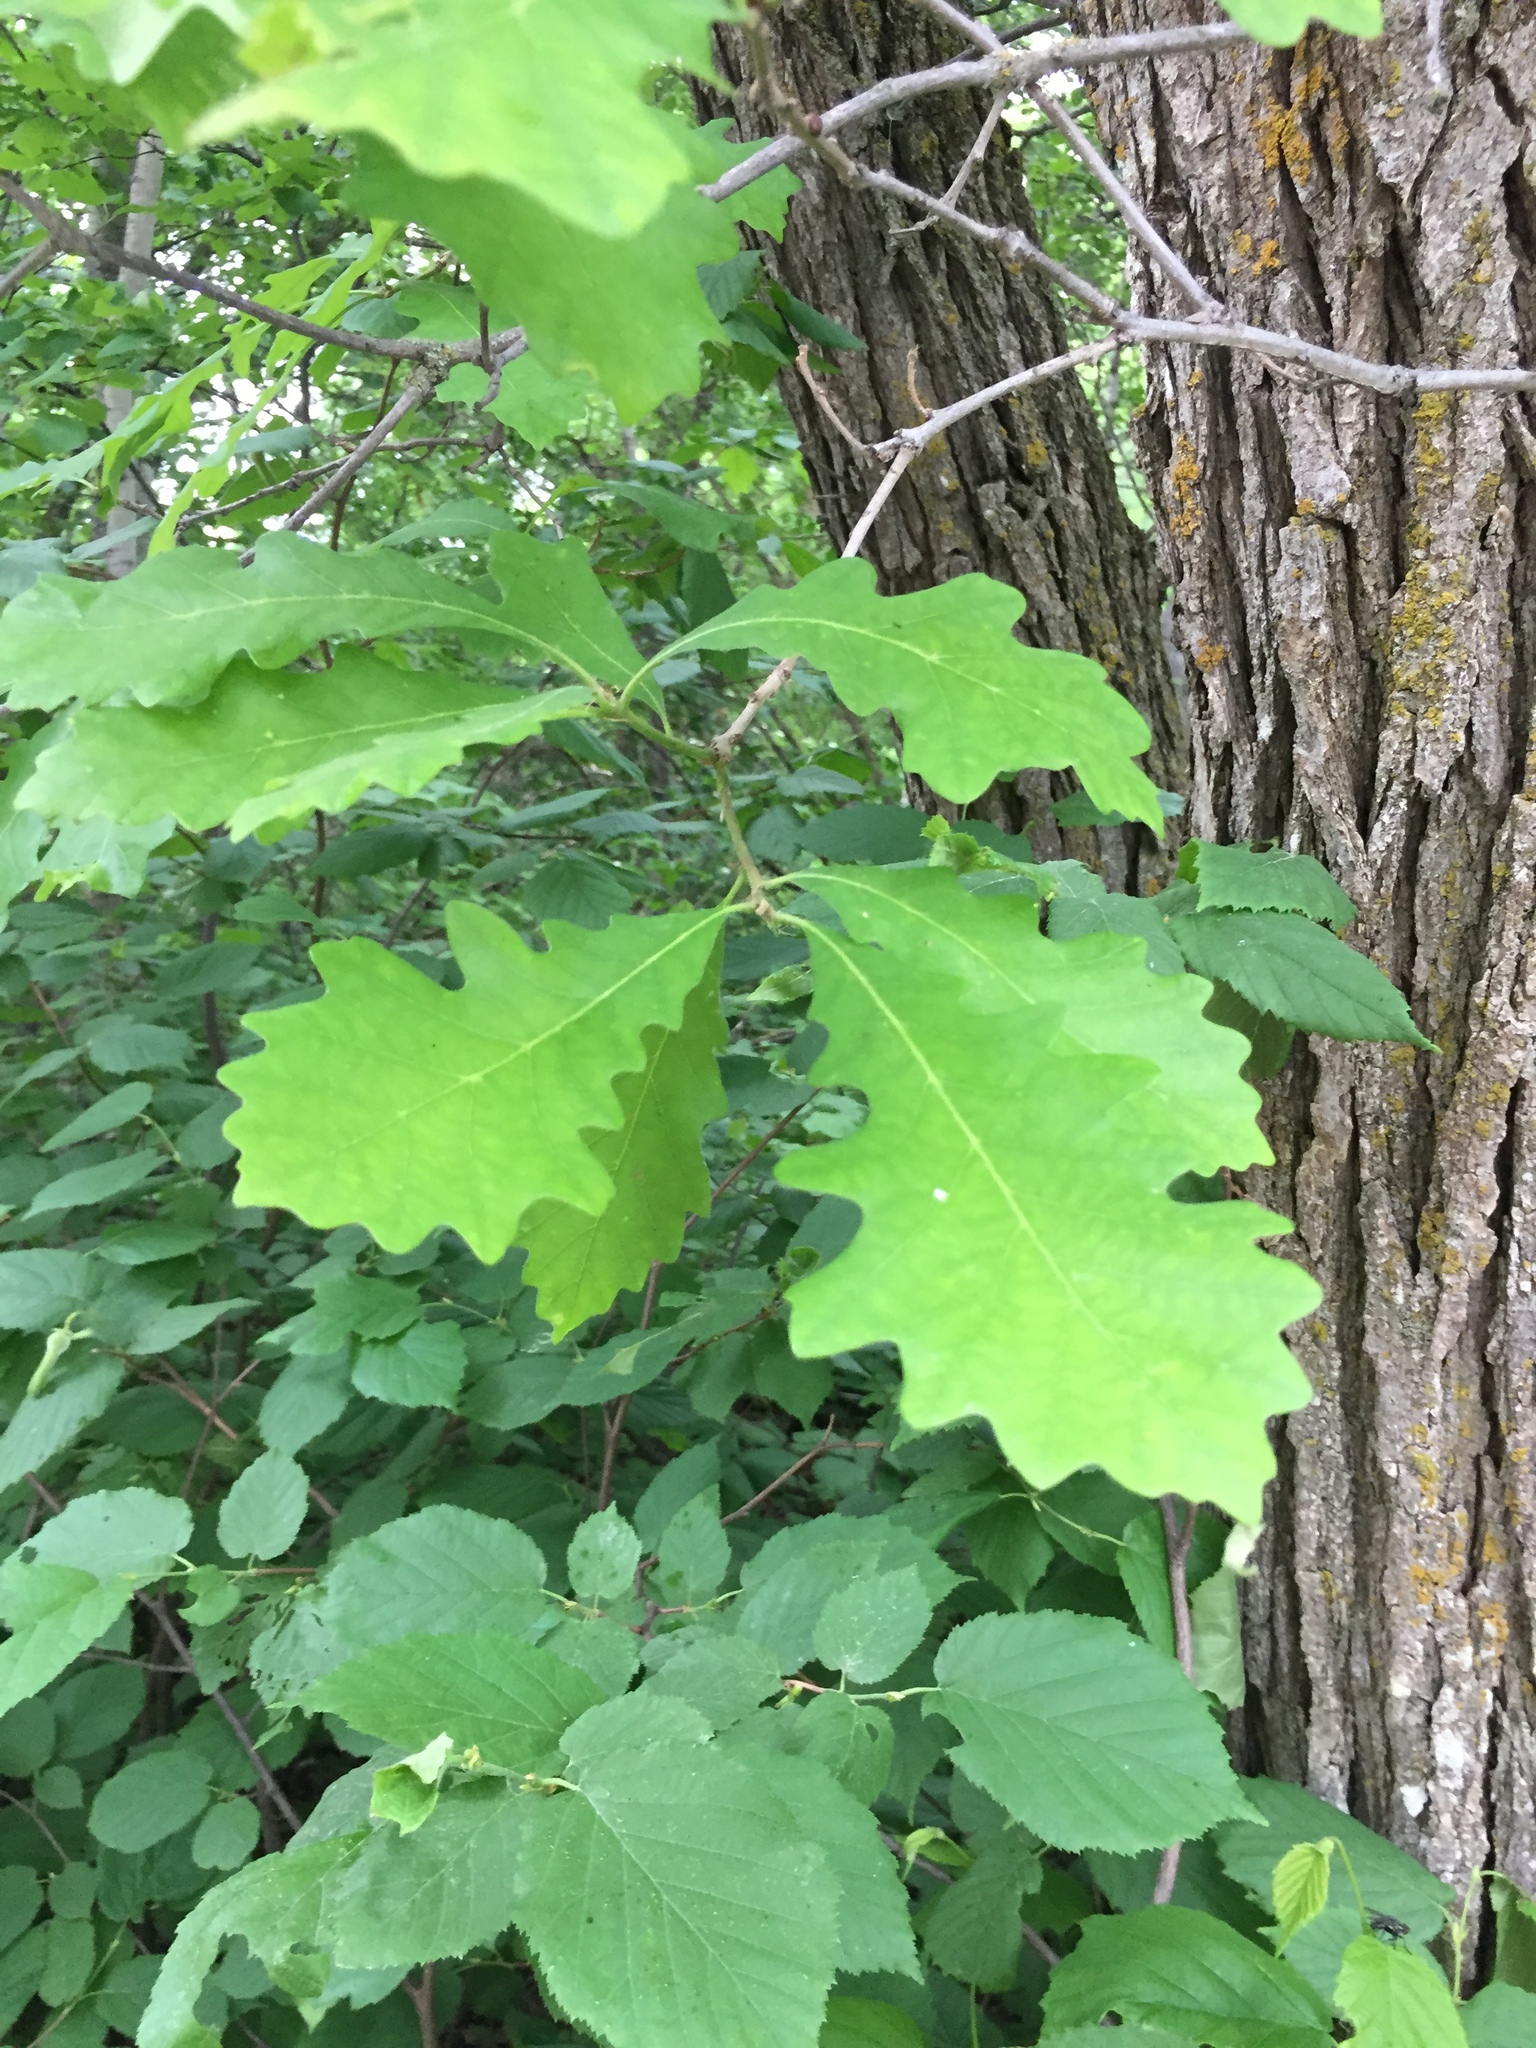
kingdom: Plantae
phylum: Tracheophyta
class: Magnoliopsida
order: Fagales
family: Fagaceae
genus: Quercus
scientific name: Quercus macrocarpa
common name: Bur oak
